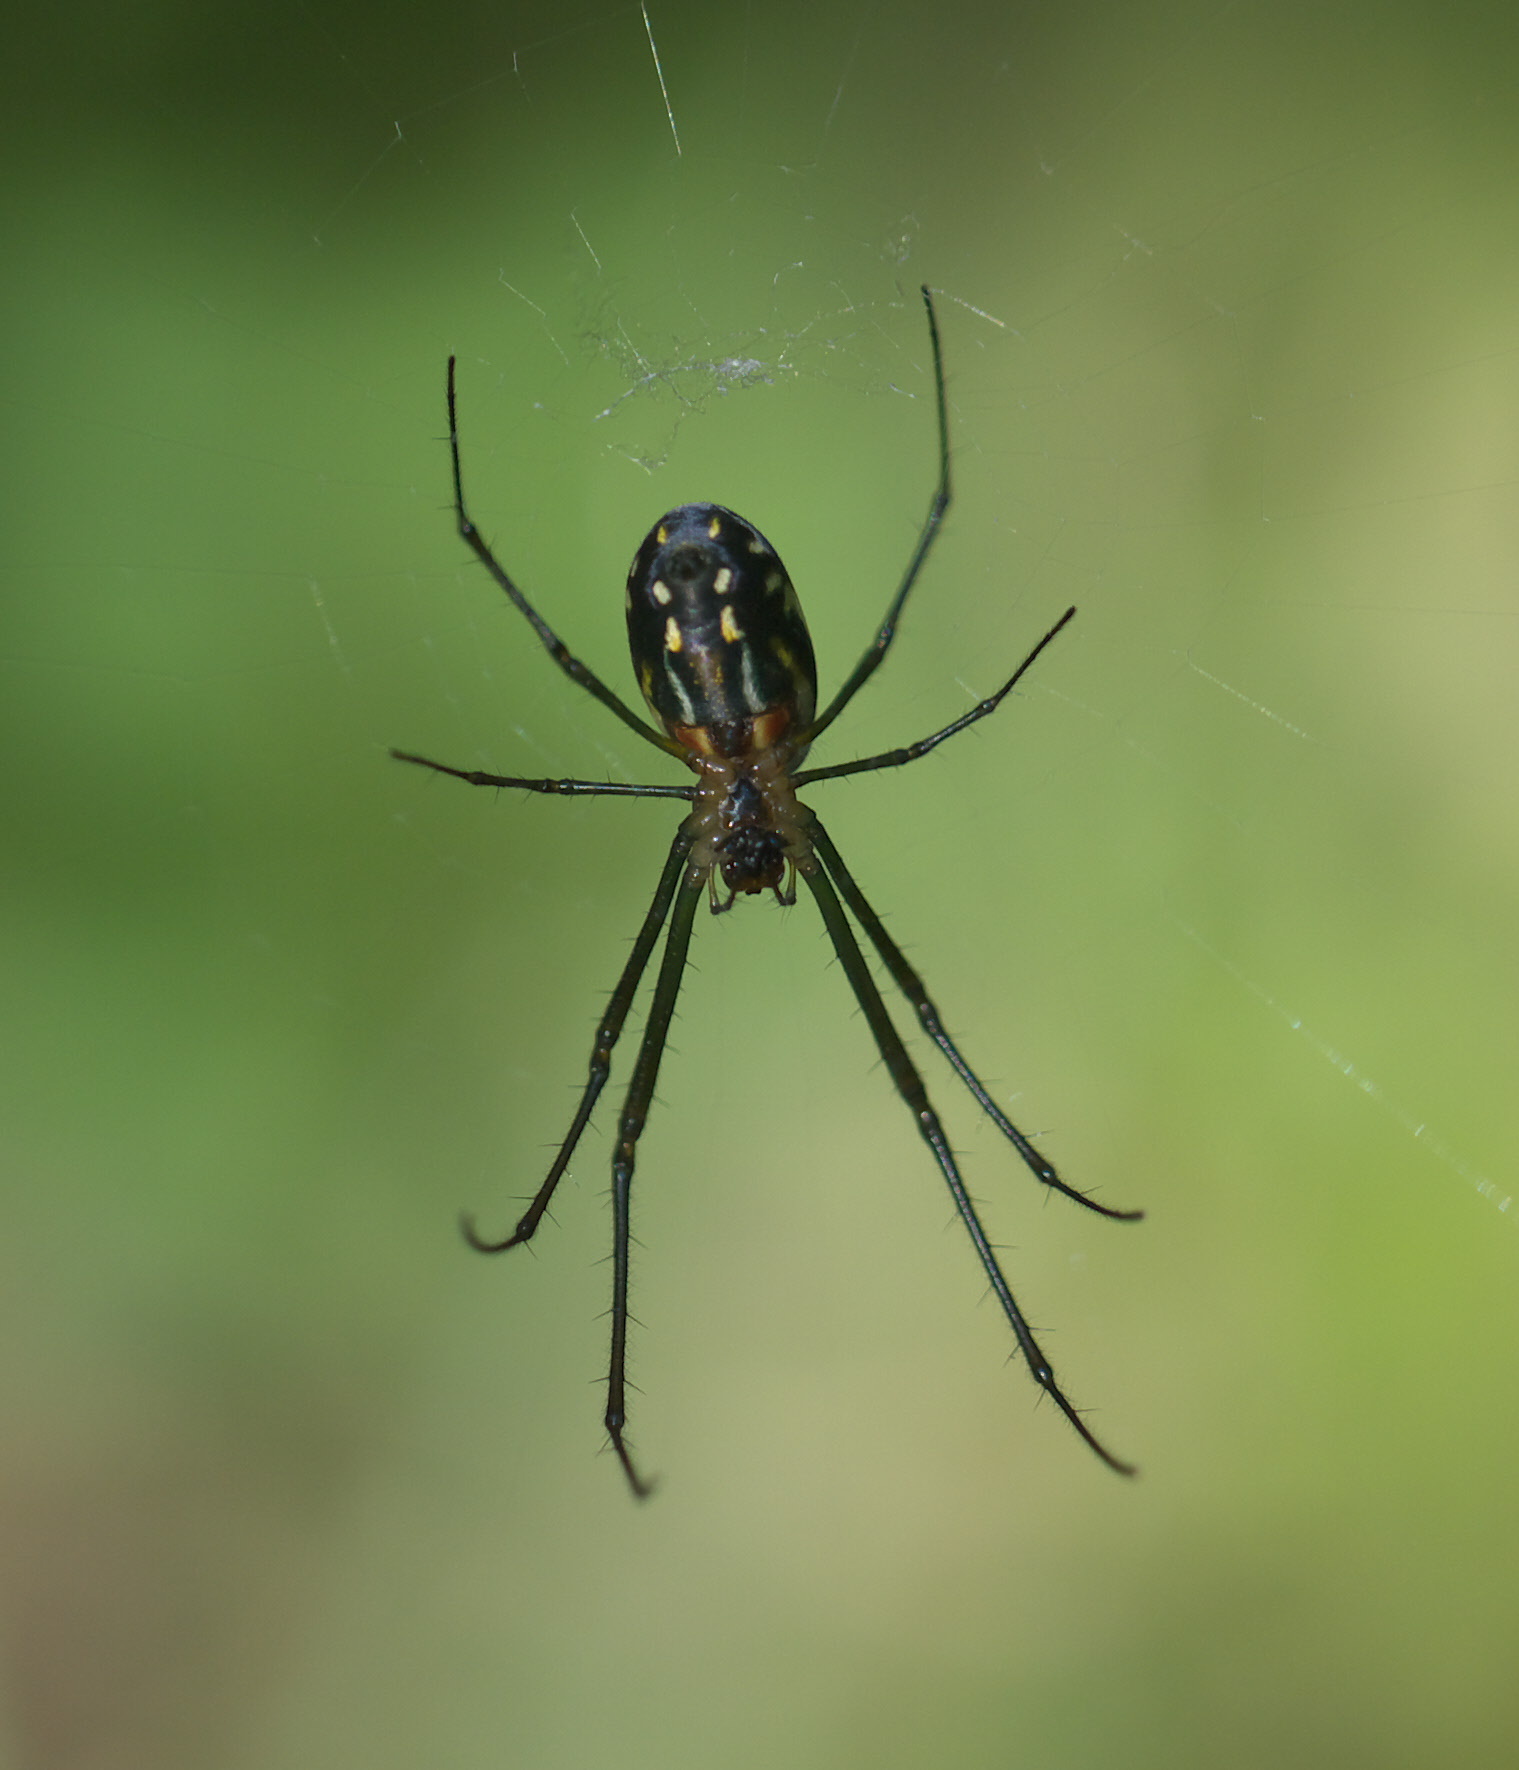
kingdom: Animalia
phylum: Arthropoda
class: Arachnida
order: Araneae
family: Tetragnathidae
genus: Leucauge
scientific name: Leucauge argyra
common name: Longjawed orb weavers
